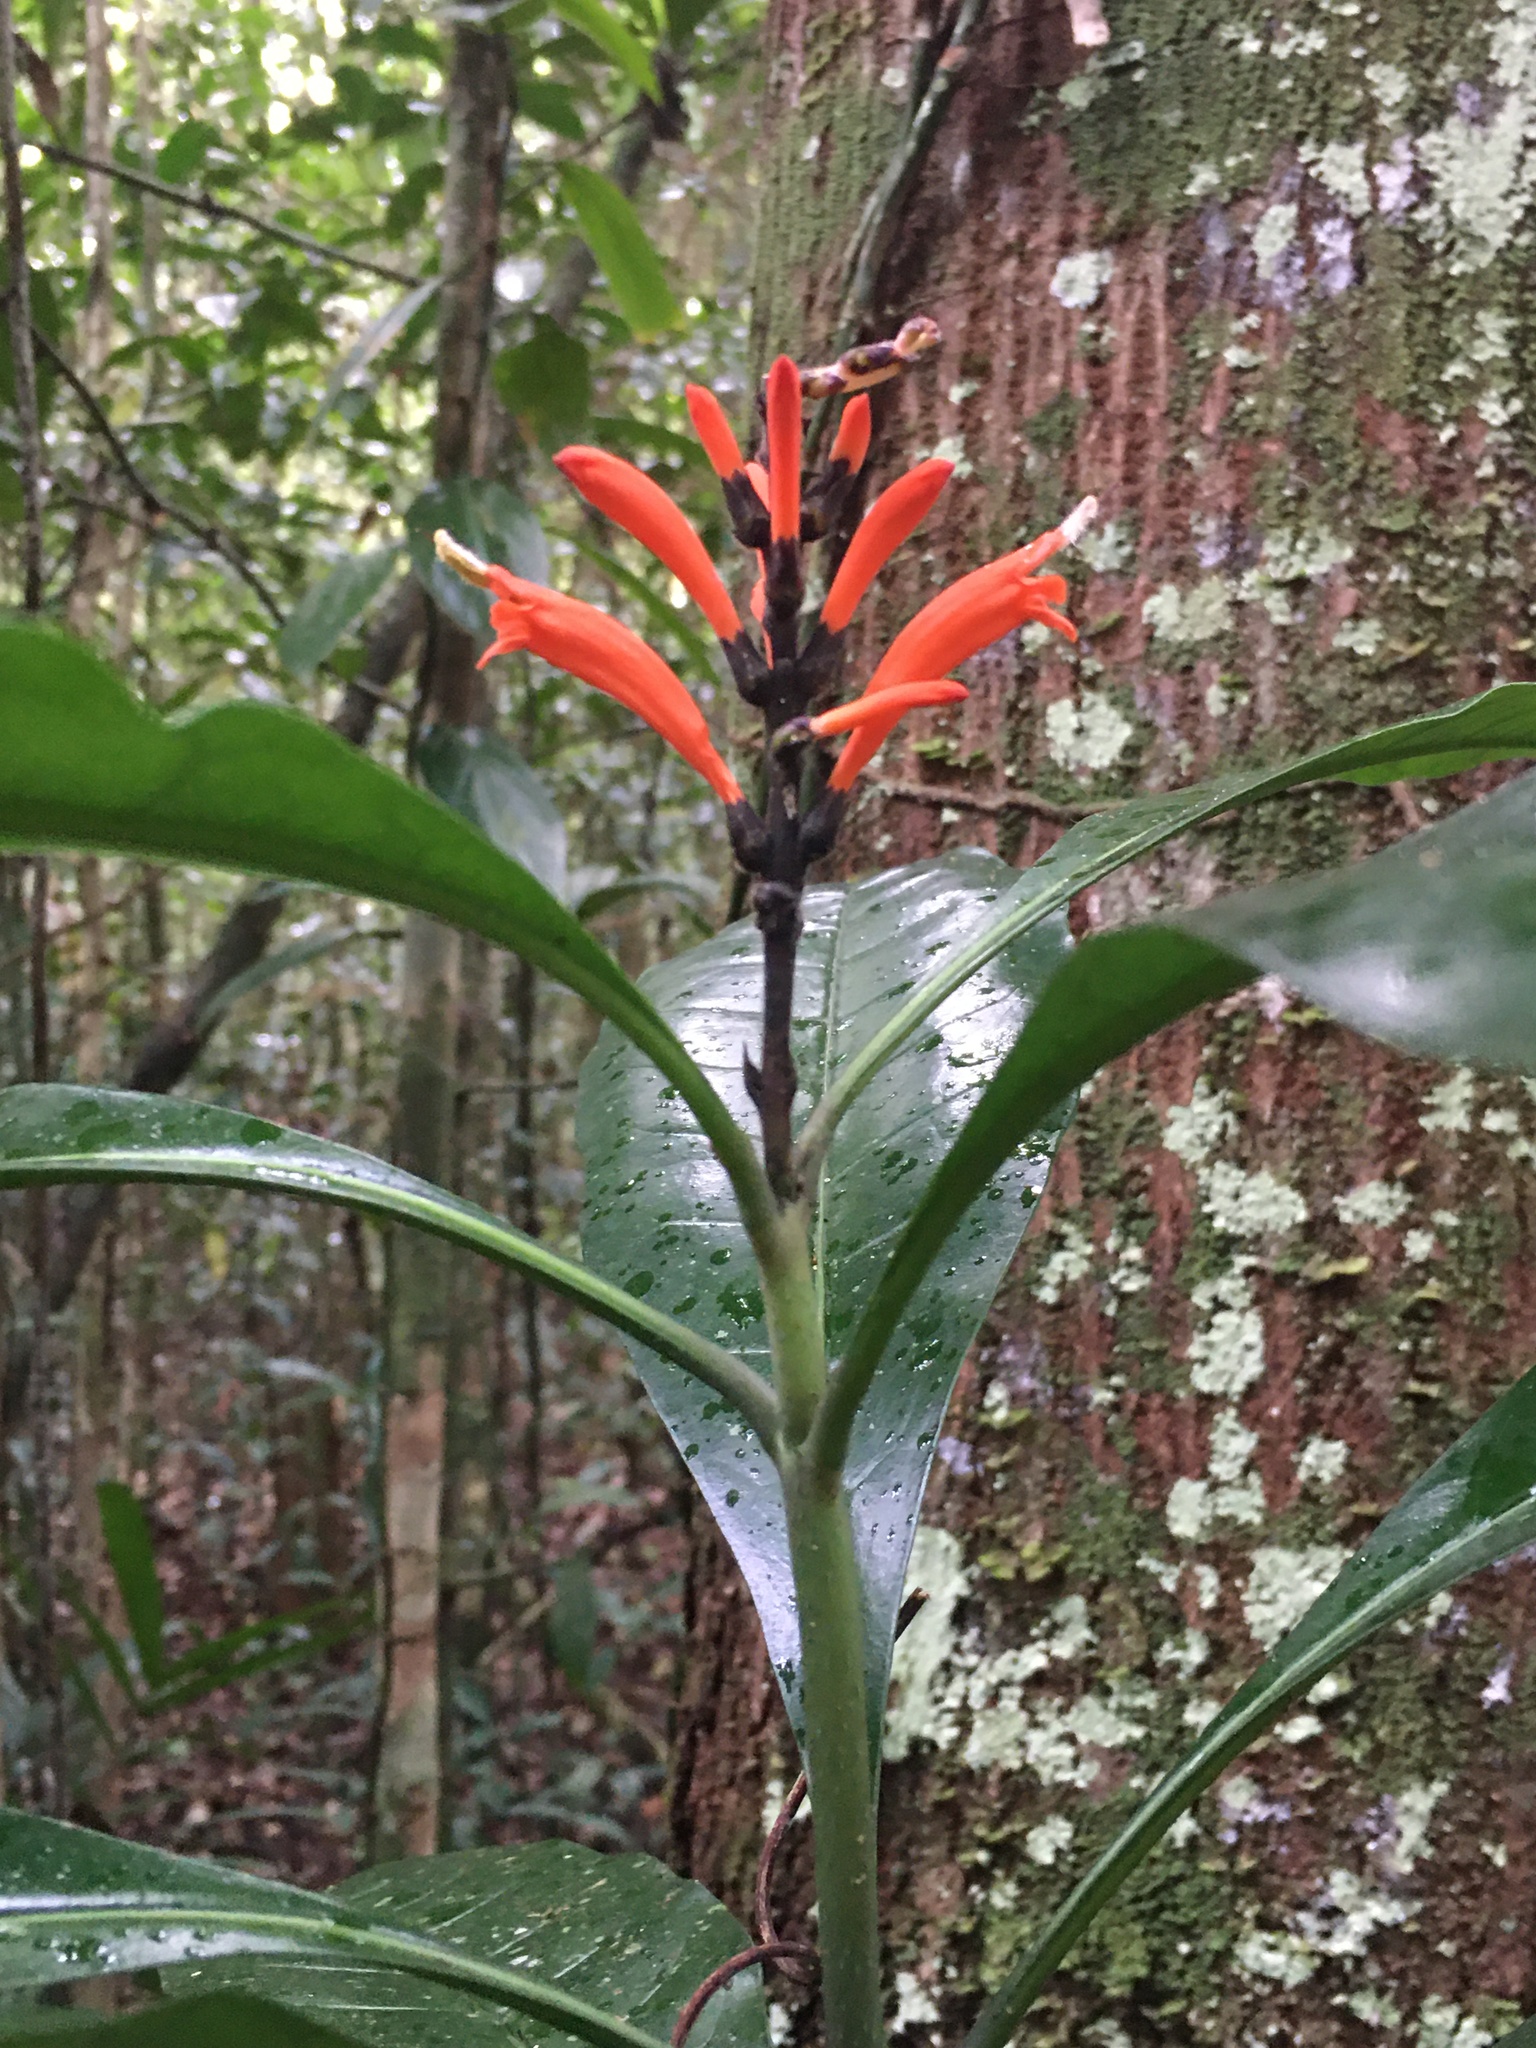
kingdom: Plantae
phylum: Tracheophyta
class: Magnoliopsida
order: Lamiales
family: Acanthaceae
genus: Aphelandra
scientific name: Aphelandra nitida
